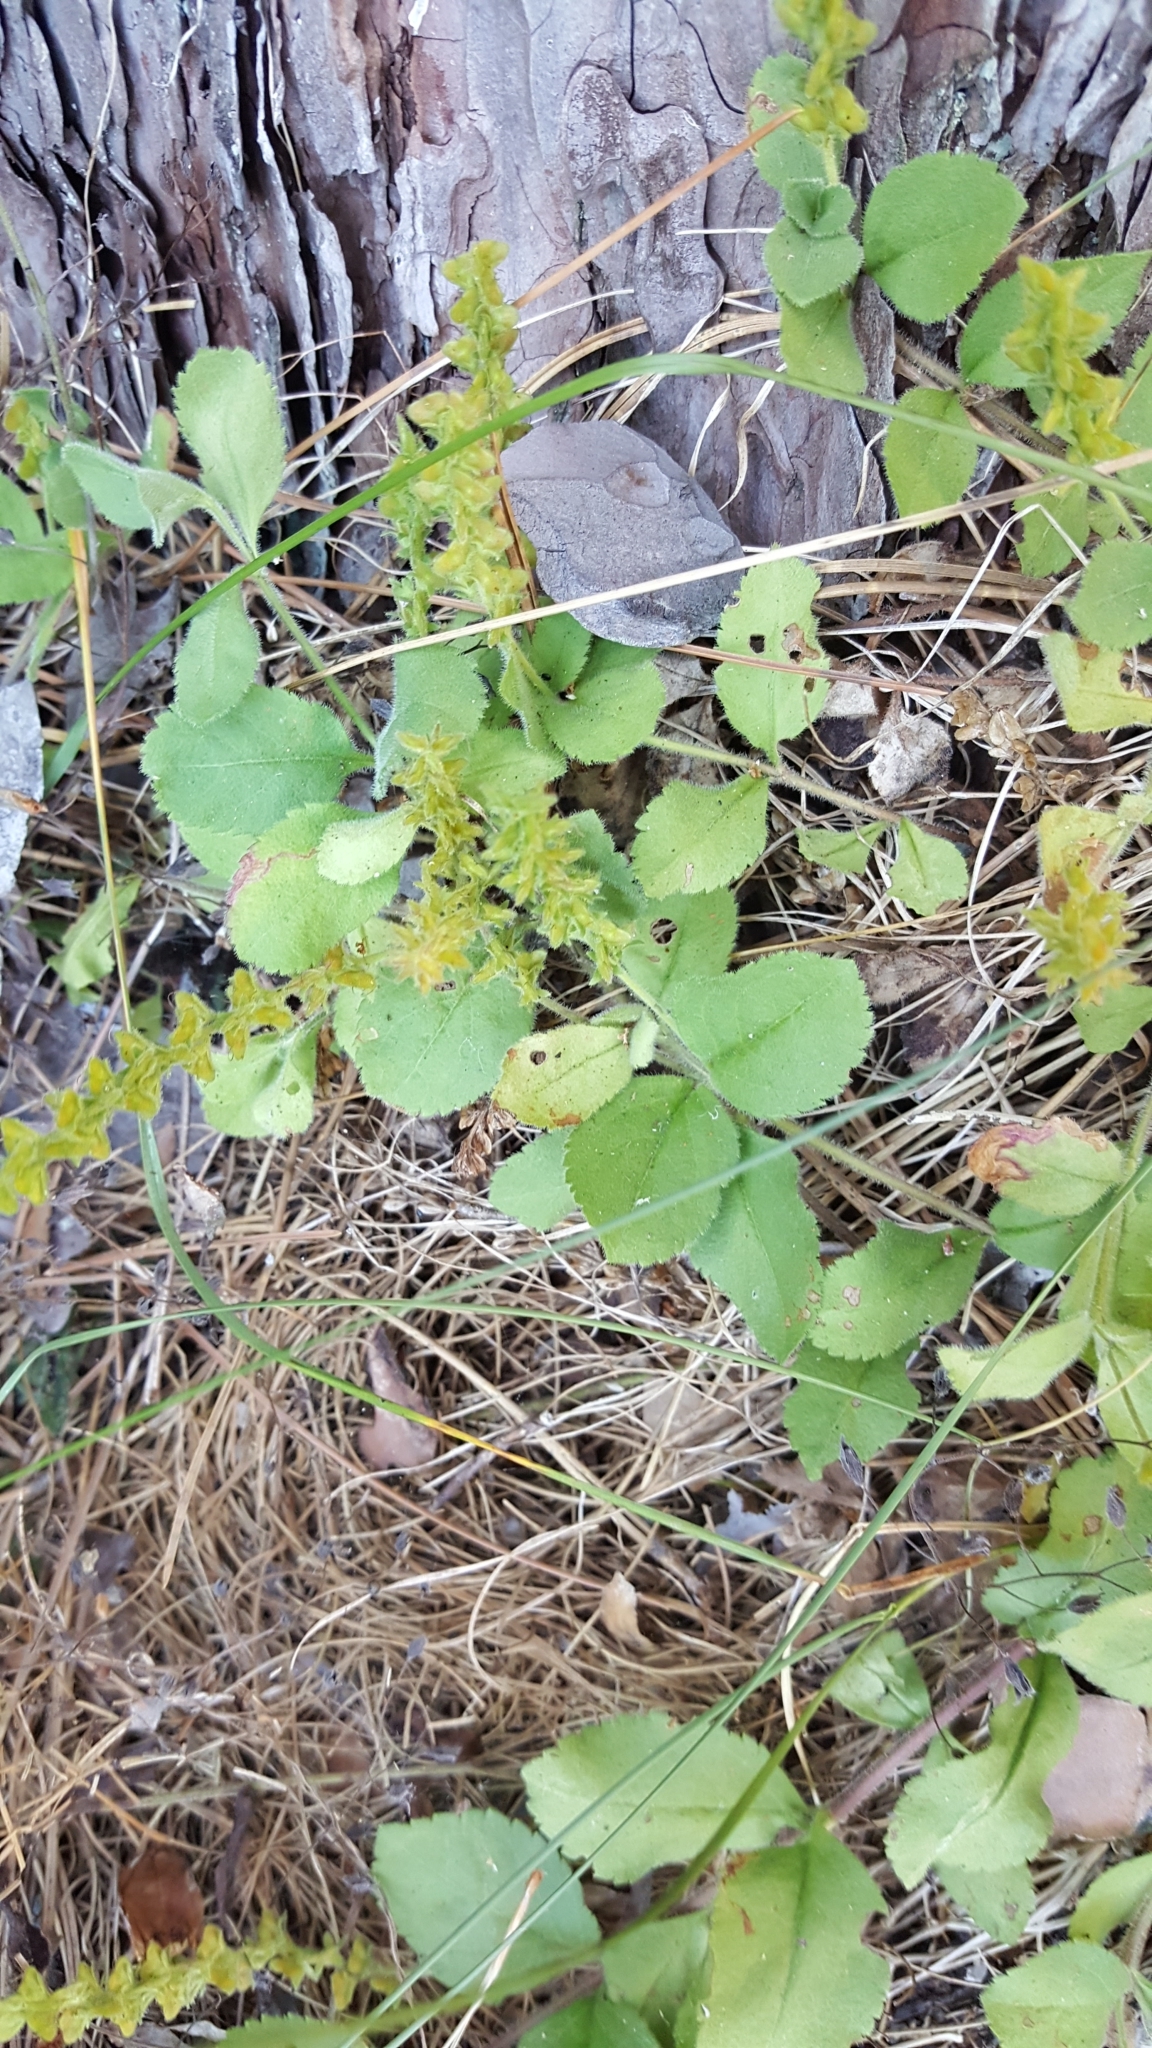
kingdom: Plantae
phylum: Tracheophyta
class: Magnoliopsida
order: Lamiales
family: Plantaginaceae
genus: Veronica
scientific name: Veronica officinalis
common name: Common speedwell
